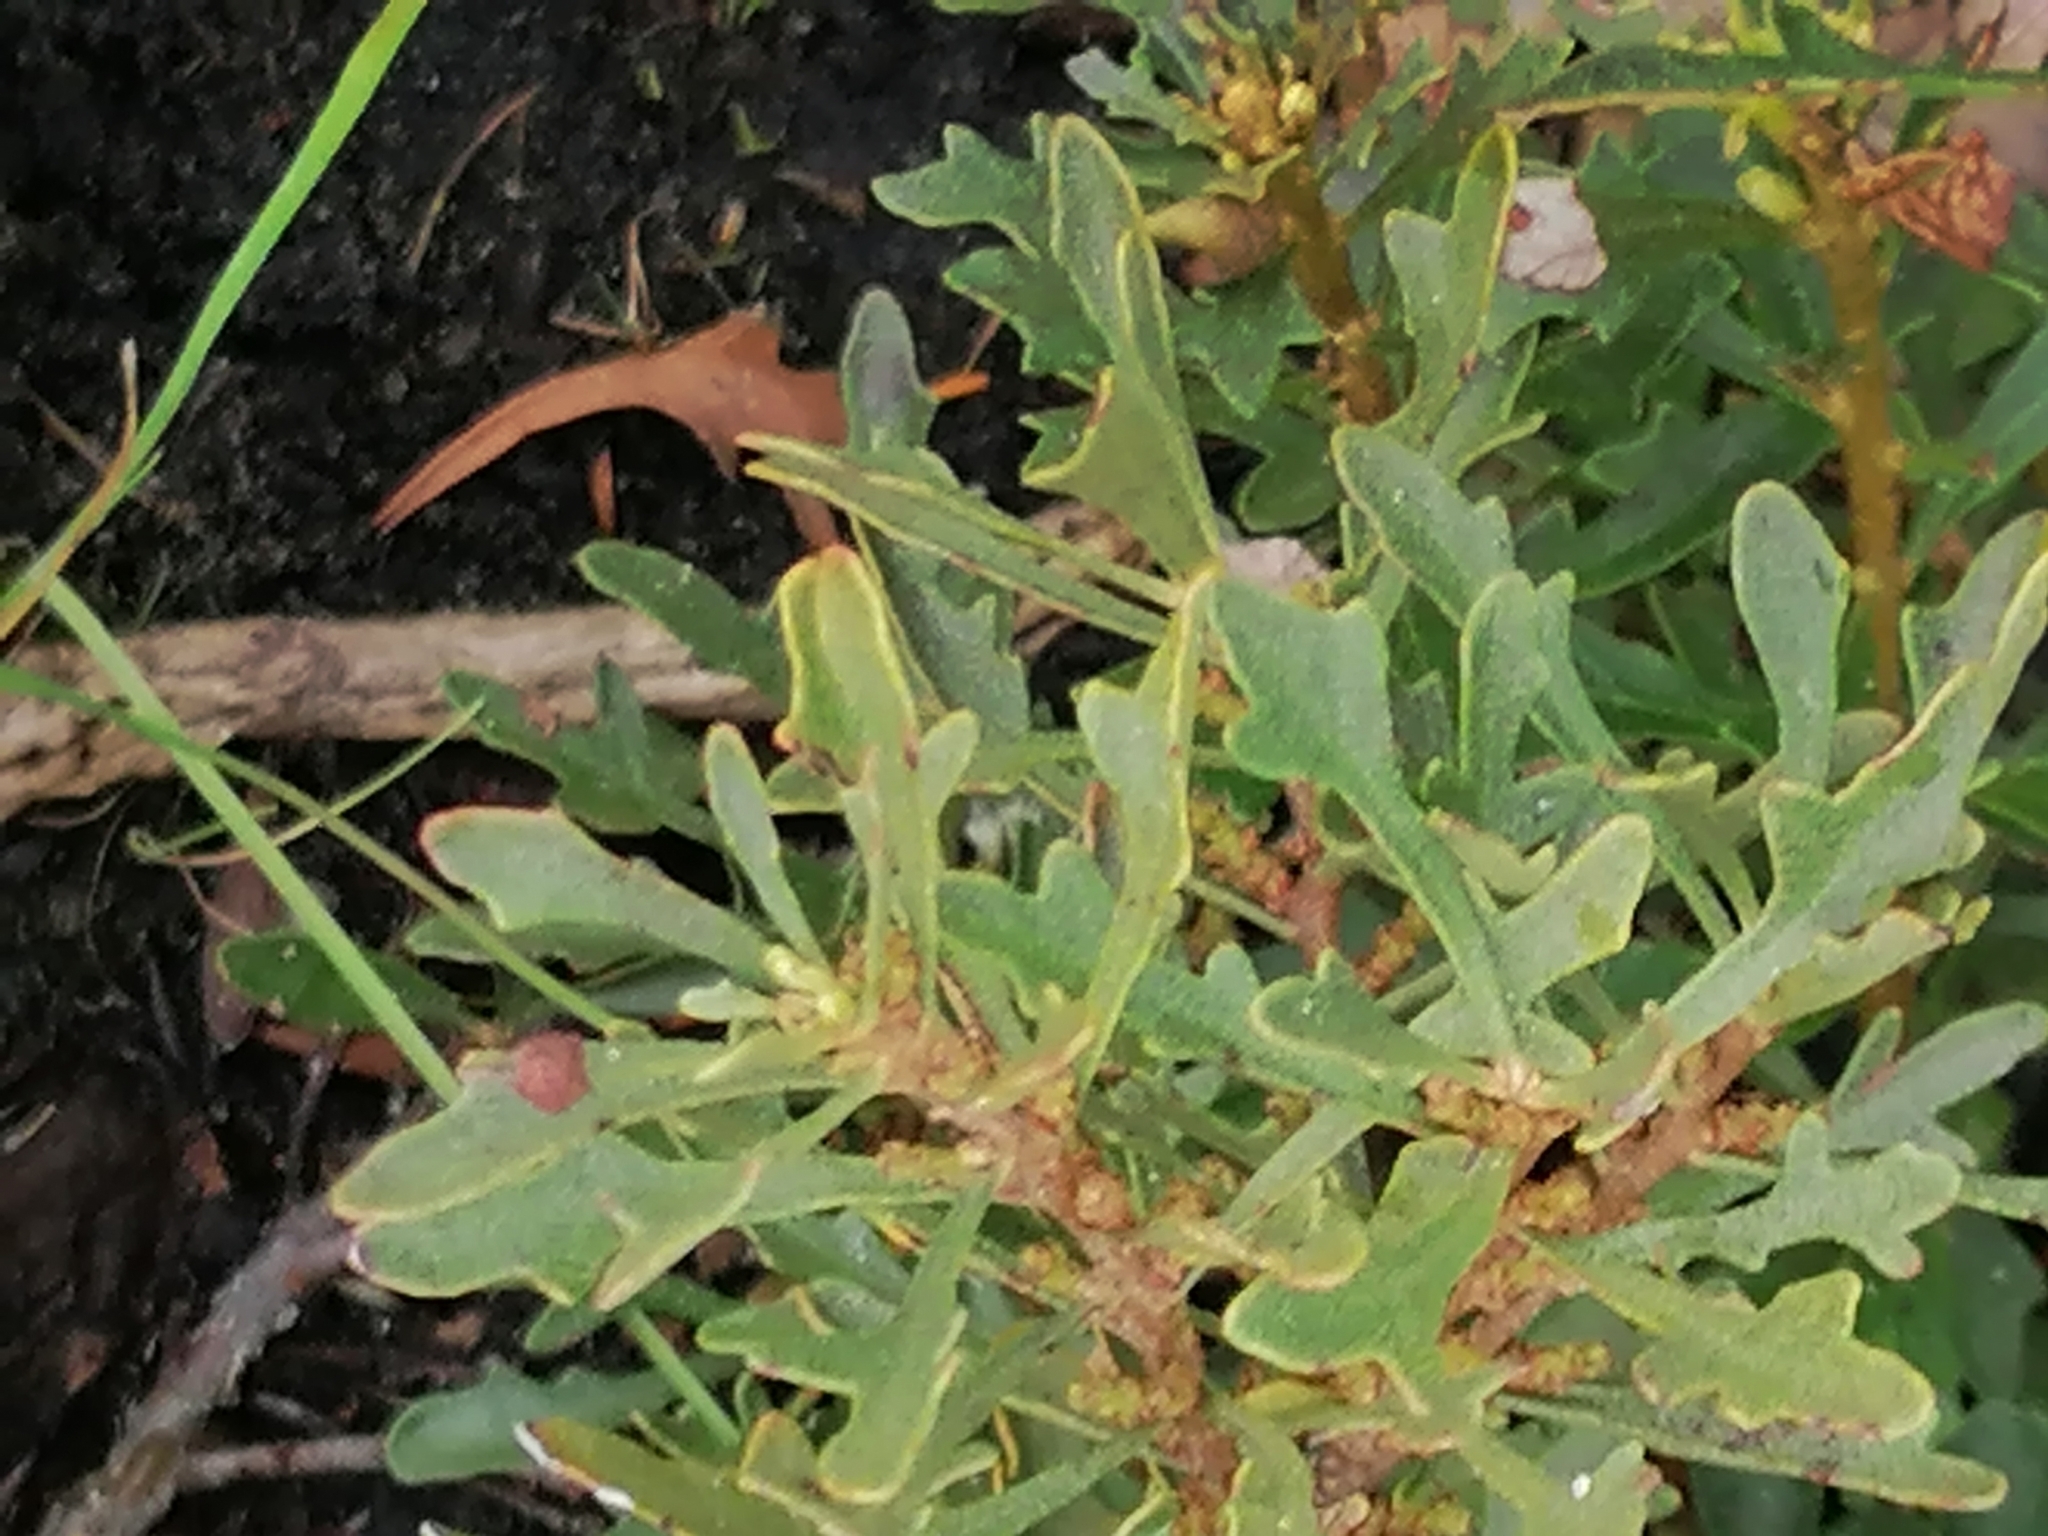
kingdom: Plantae
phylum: Tracheophyta
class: Magnoliopsida
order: Fagales
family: Myricaceae
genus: Morella
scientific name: Morella quercifolia
